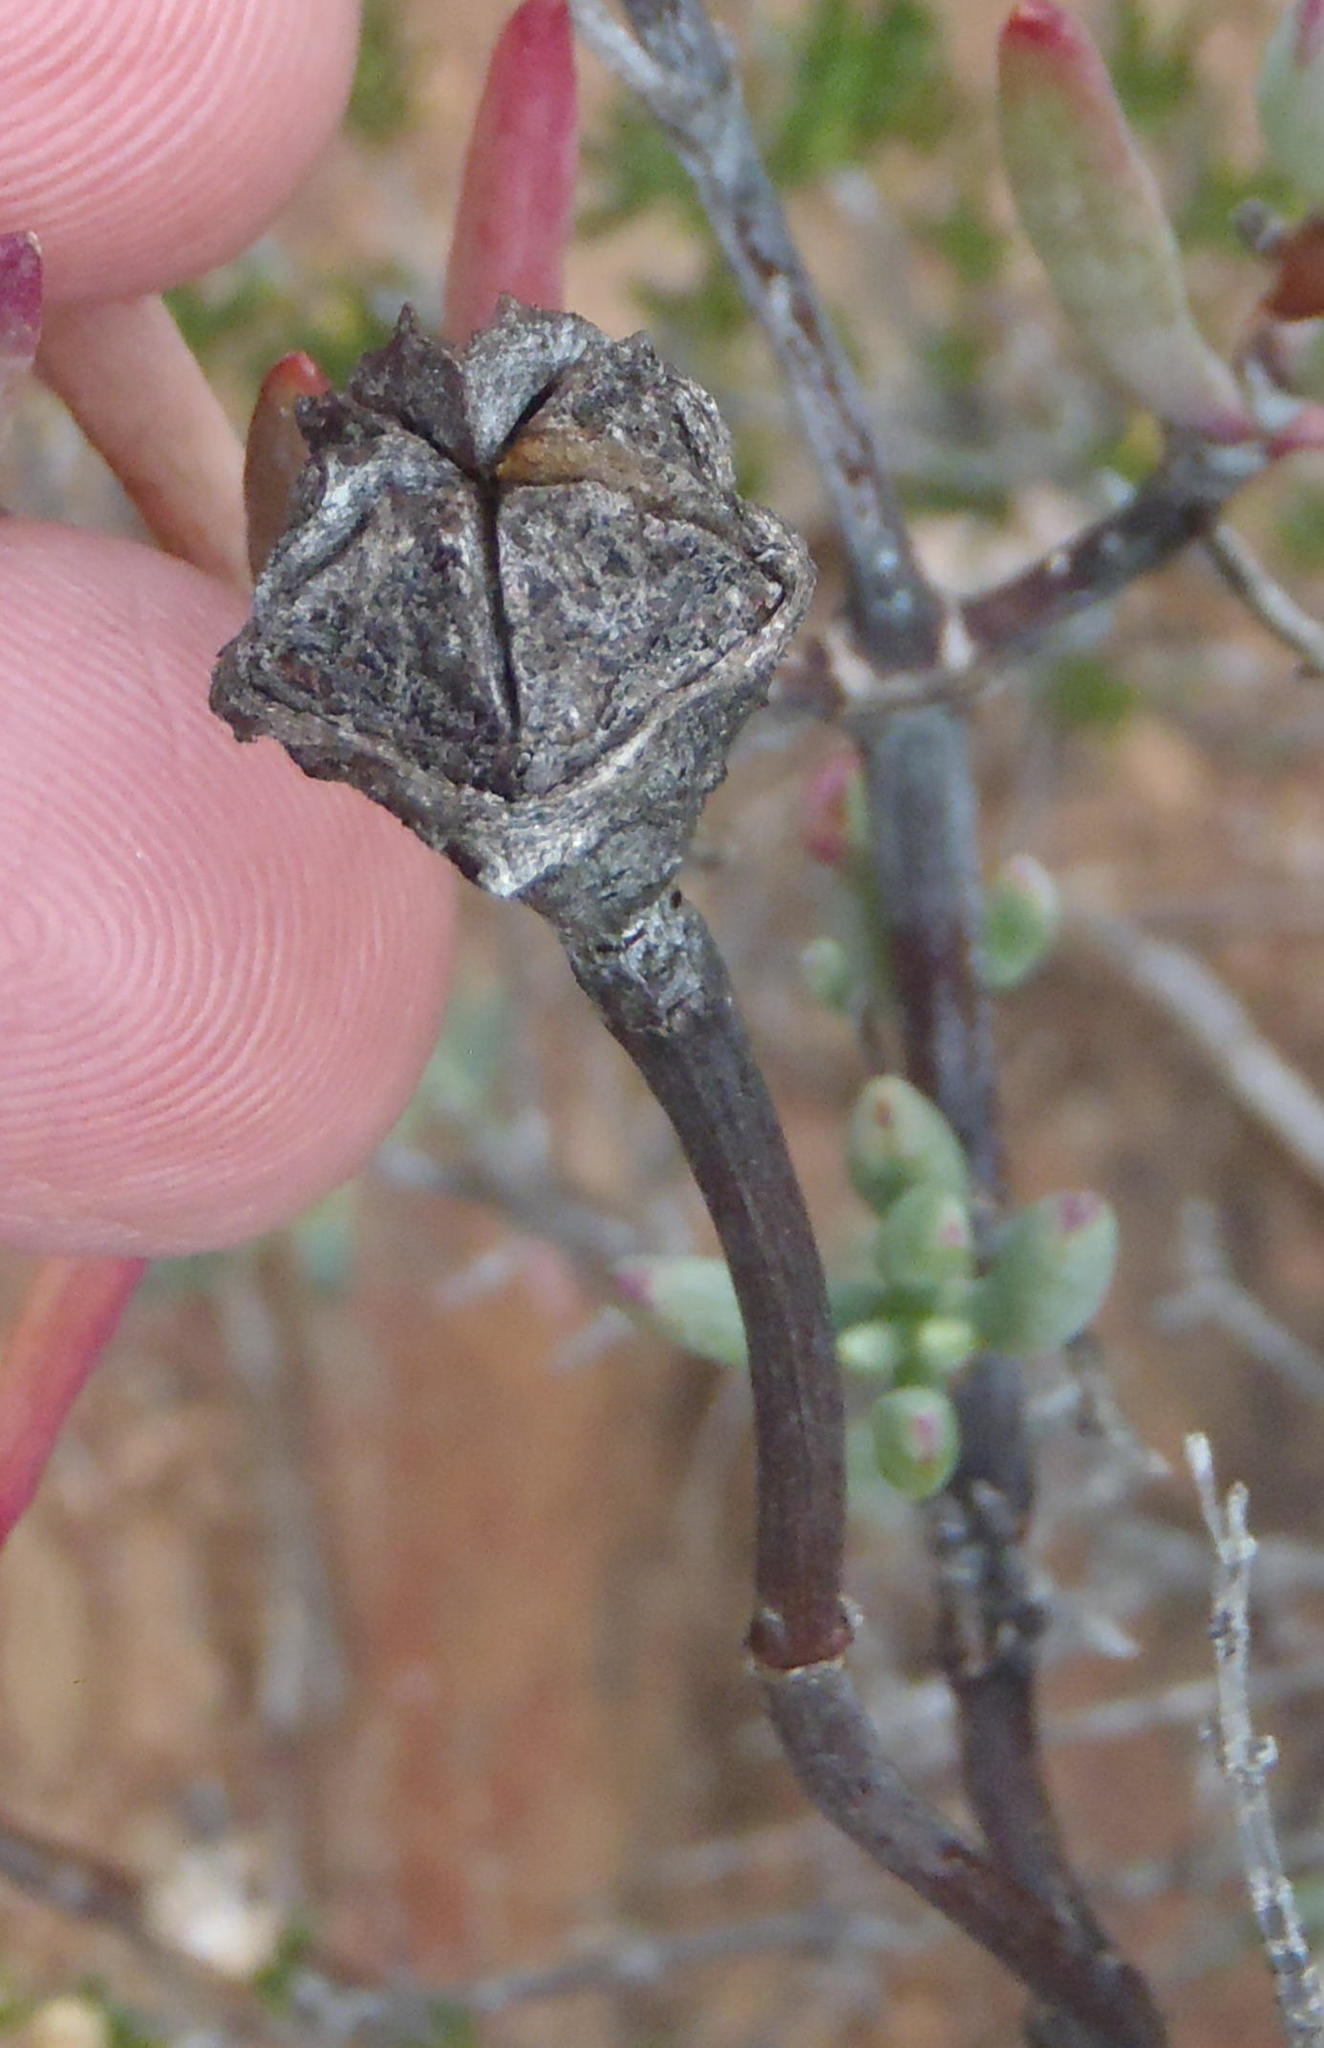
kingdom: Plantae
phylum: Tracheophyta
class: Magnoliopsida
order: Caryophyllales
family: Aizoaceae
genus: Lampranthus
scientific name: Lampranthus haworthii
